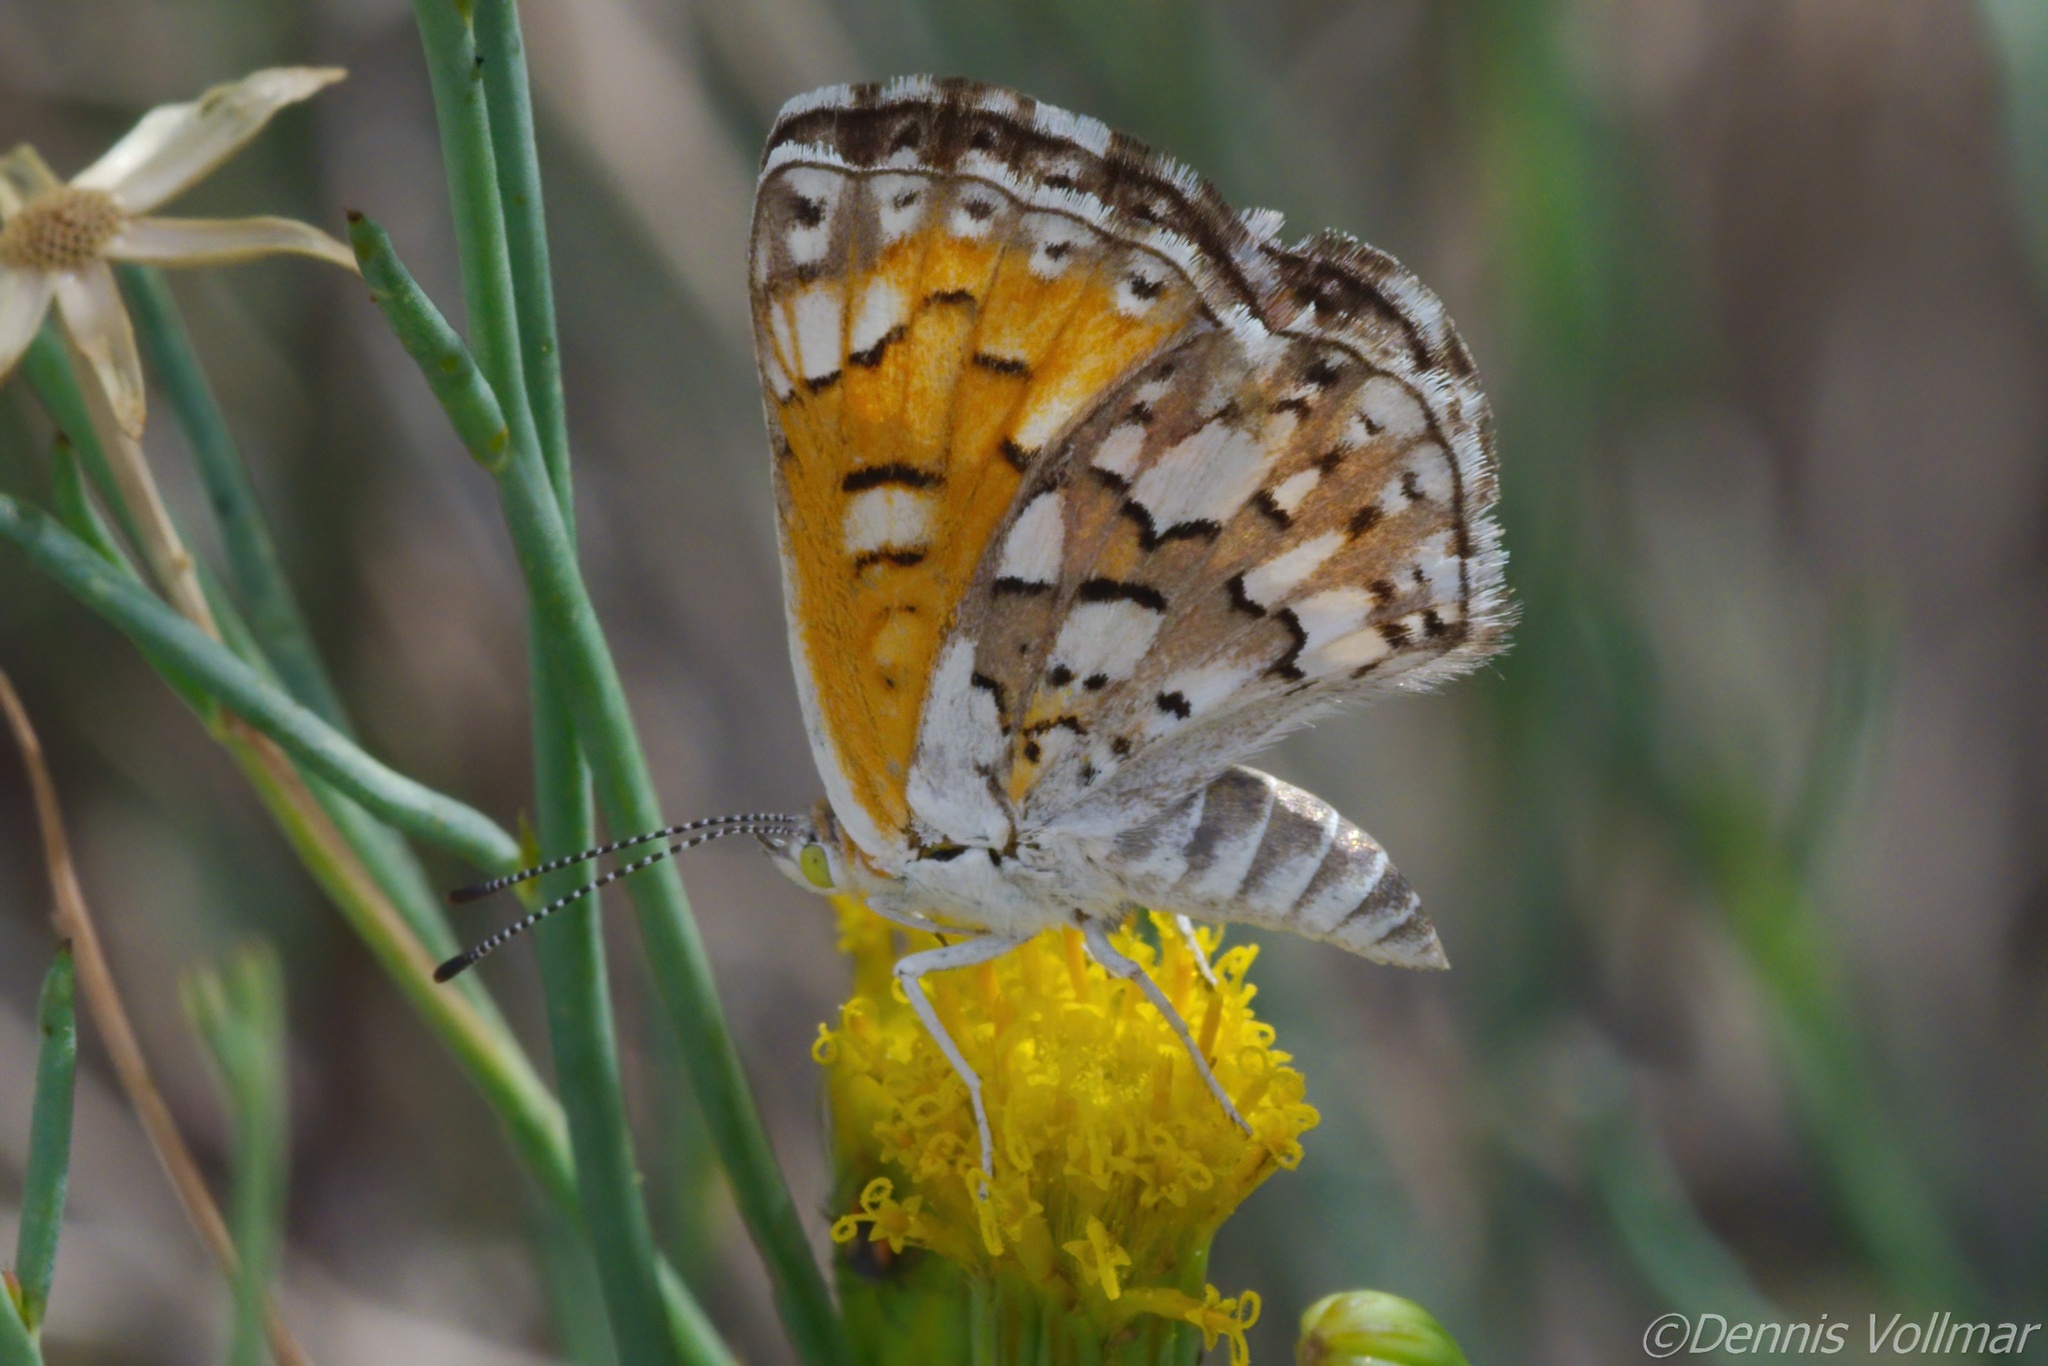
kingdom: Animalia
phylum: Arthropoda
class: Insecta
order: Lepidoptera
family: Riodinidae
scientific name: Riodinidae
